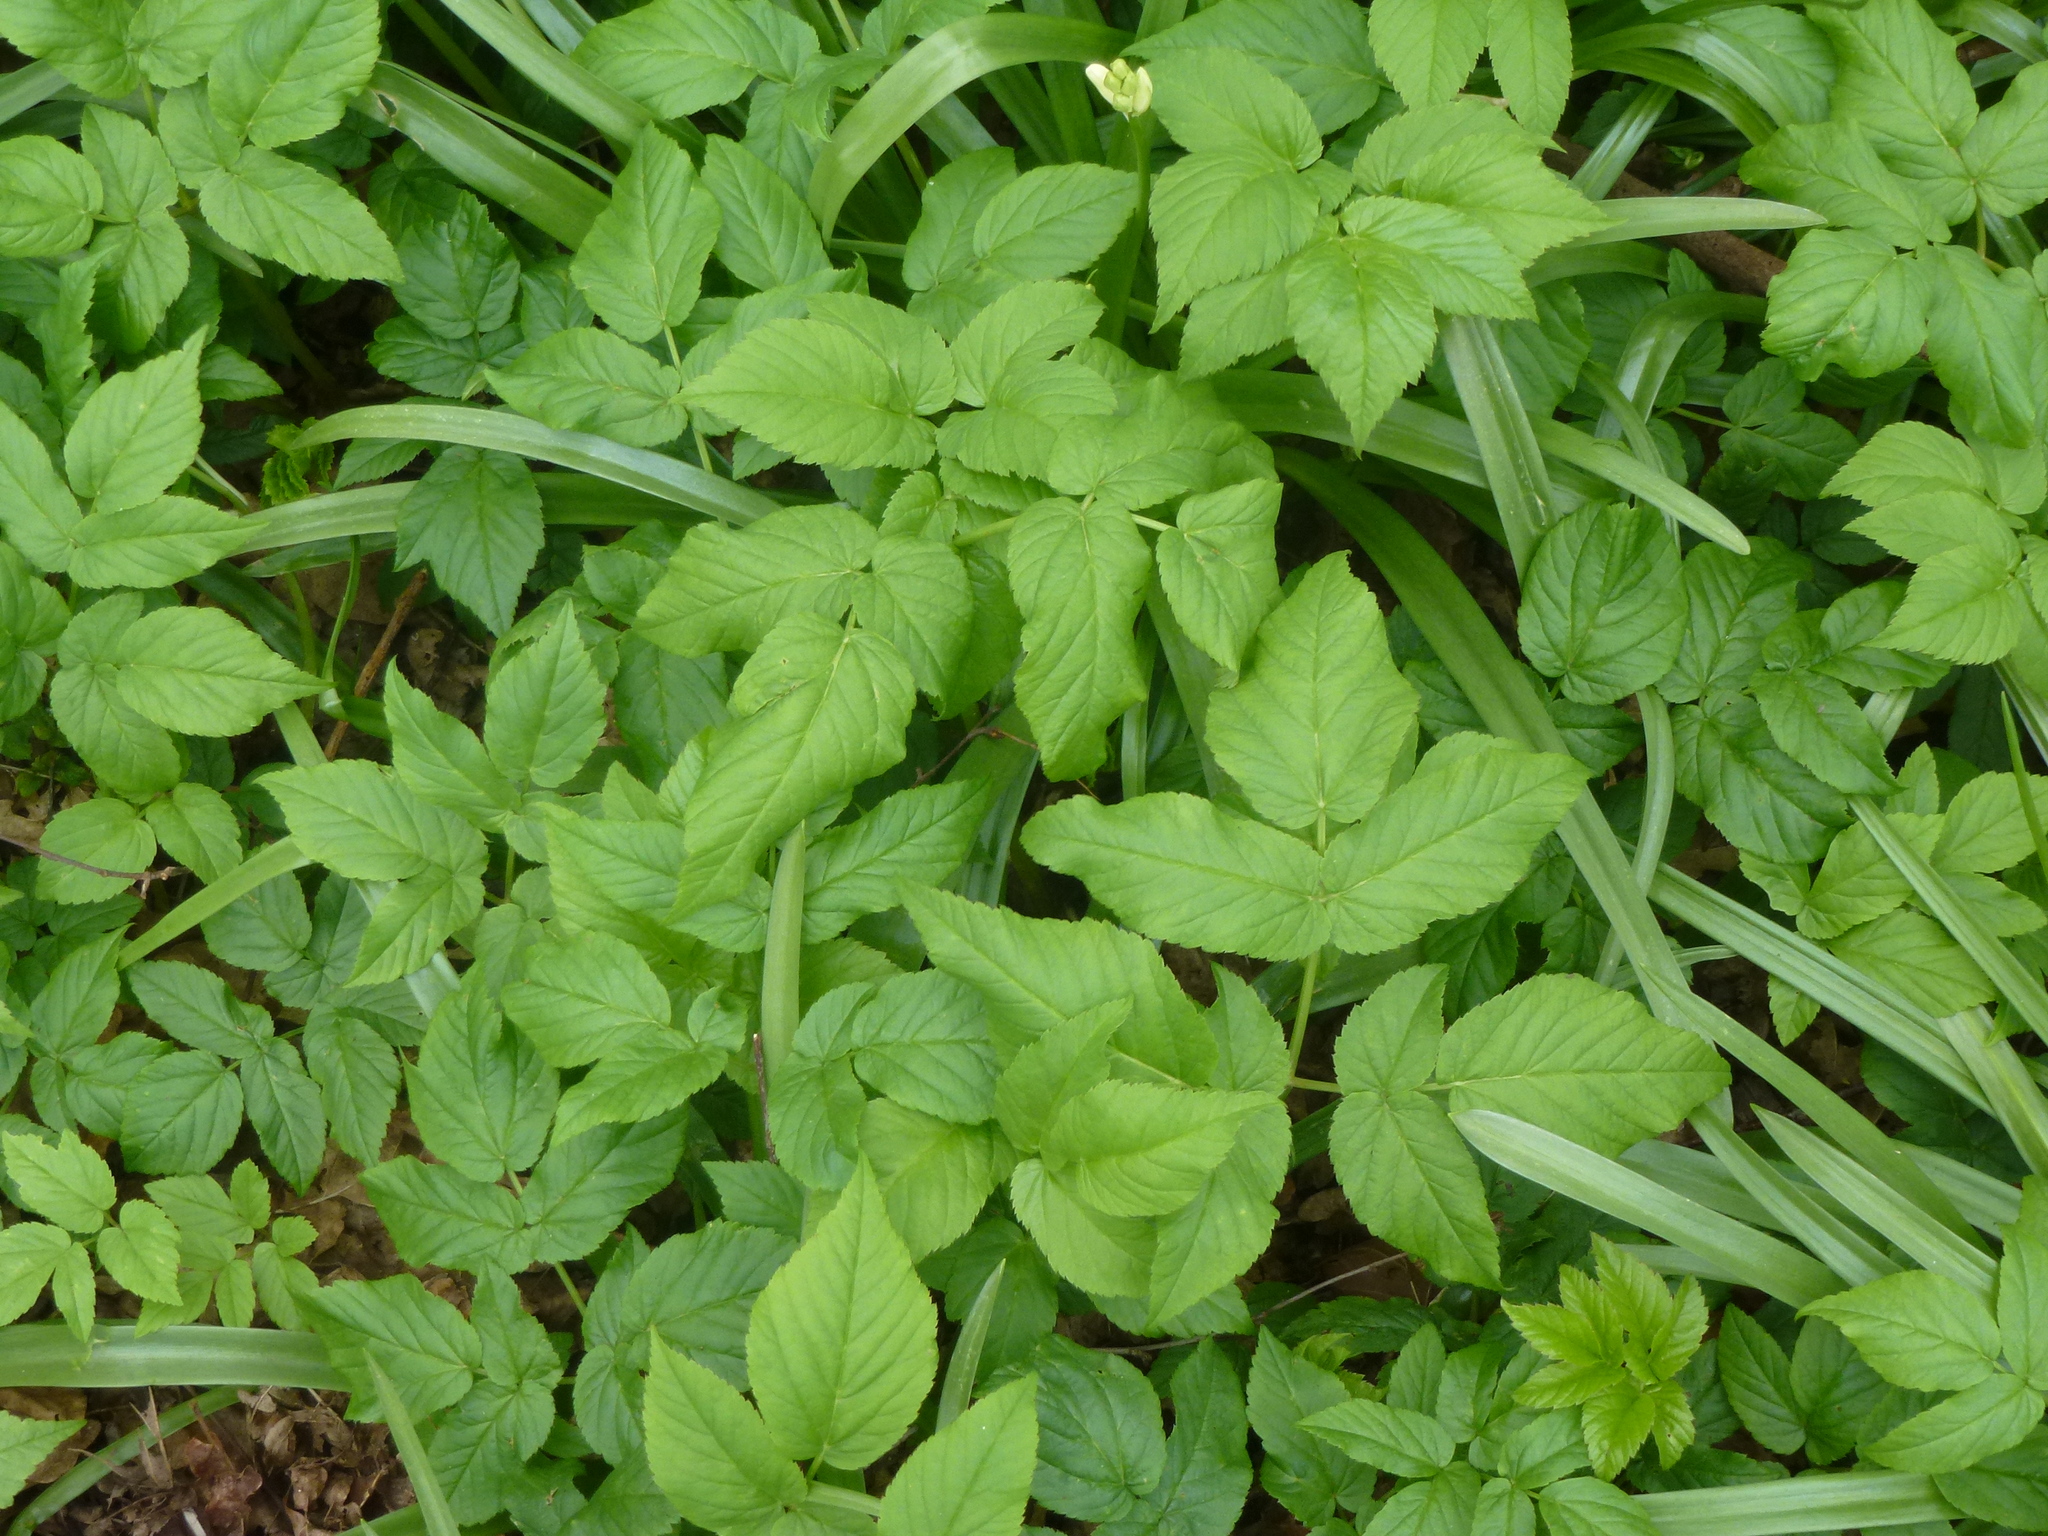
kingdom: Plantae
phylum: Tracheophyta
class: Magnoliopsida
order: Apiales
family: Apiaceae
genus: Aegopodium
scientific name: Aegopodium podagraria
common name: Ground-elder
